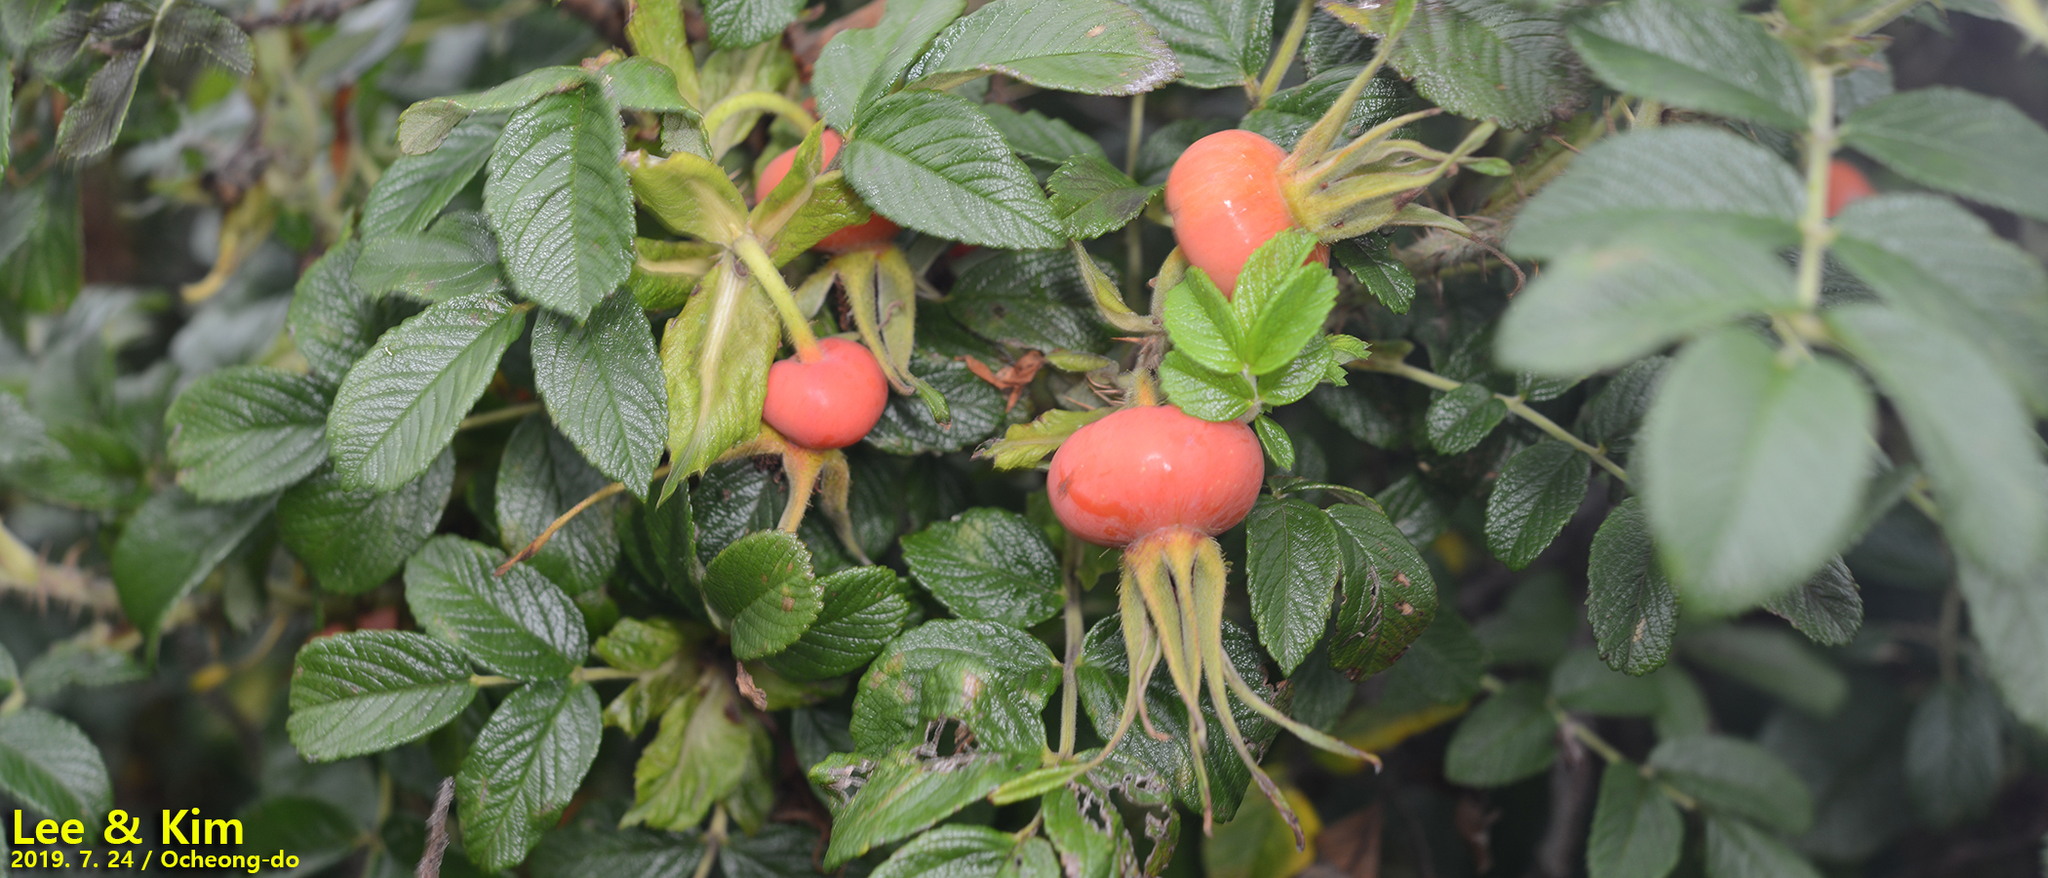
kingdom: Plantae
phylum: Tracheophyta
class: Magnoliopsida
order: Rosales
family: Rosaceae
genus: Rosa
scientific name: Rosa rugosa
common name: Japanese rose
